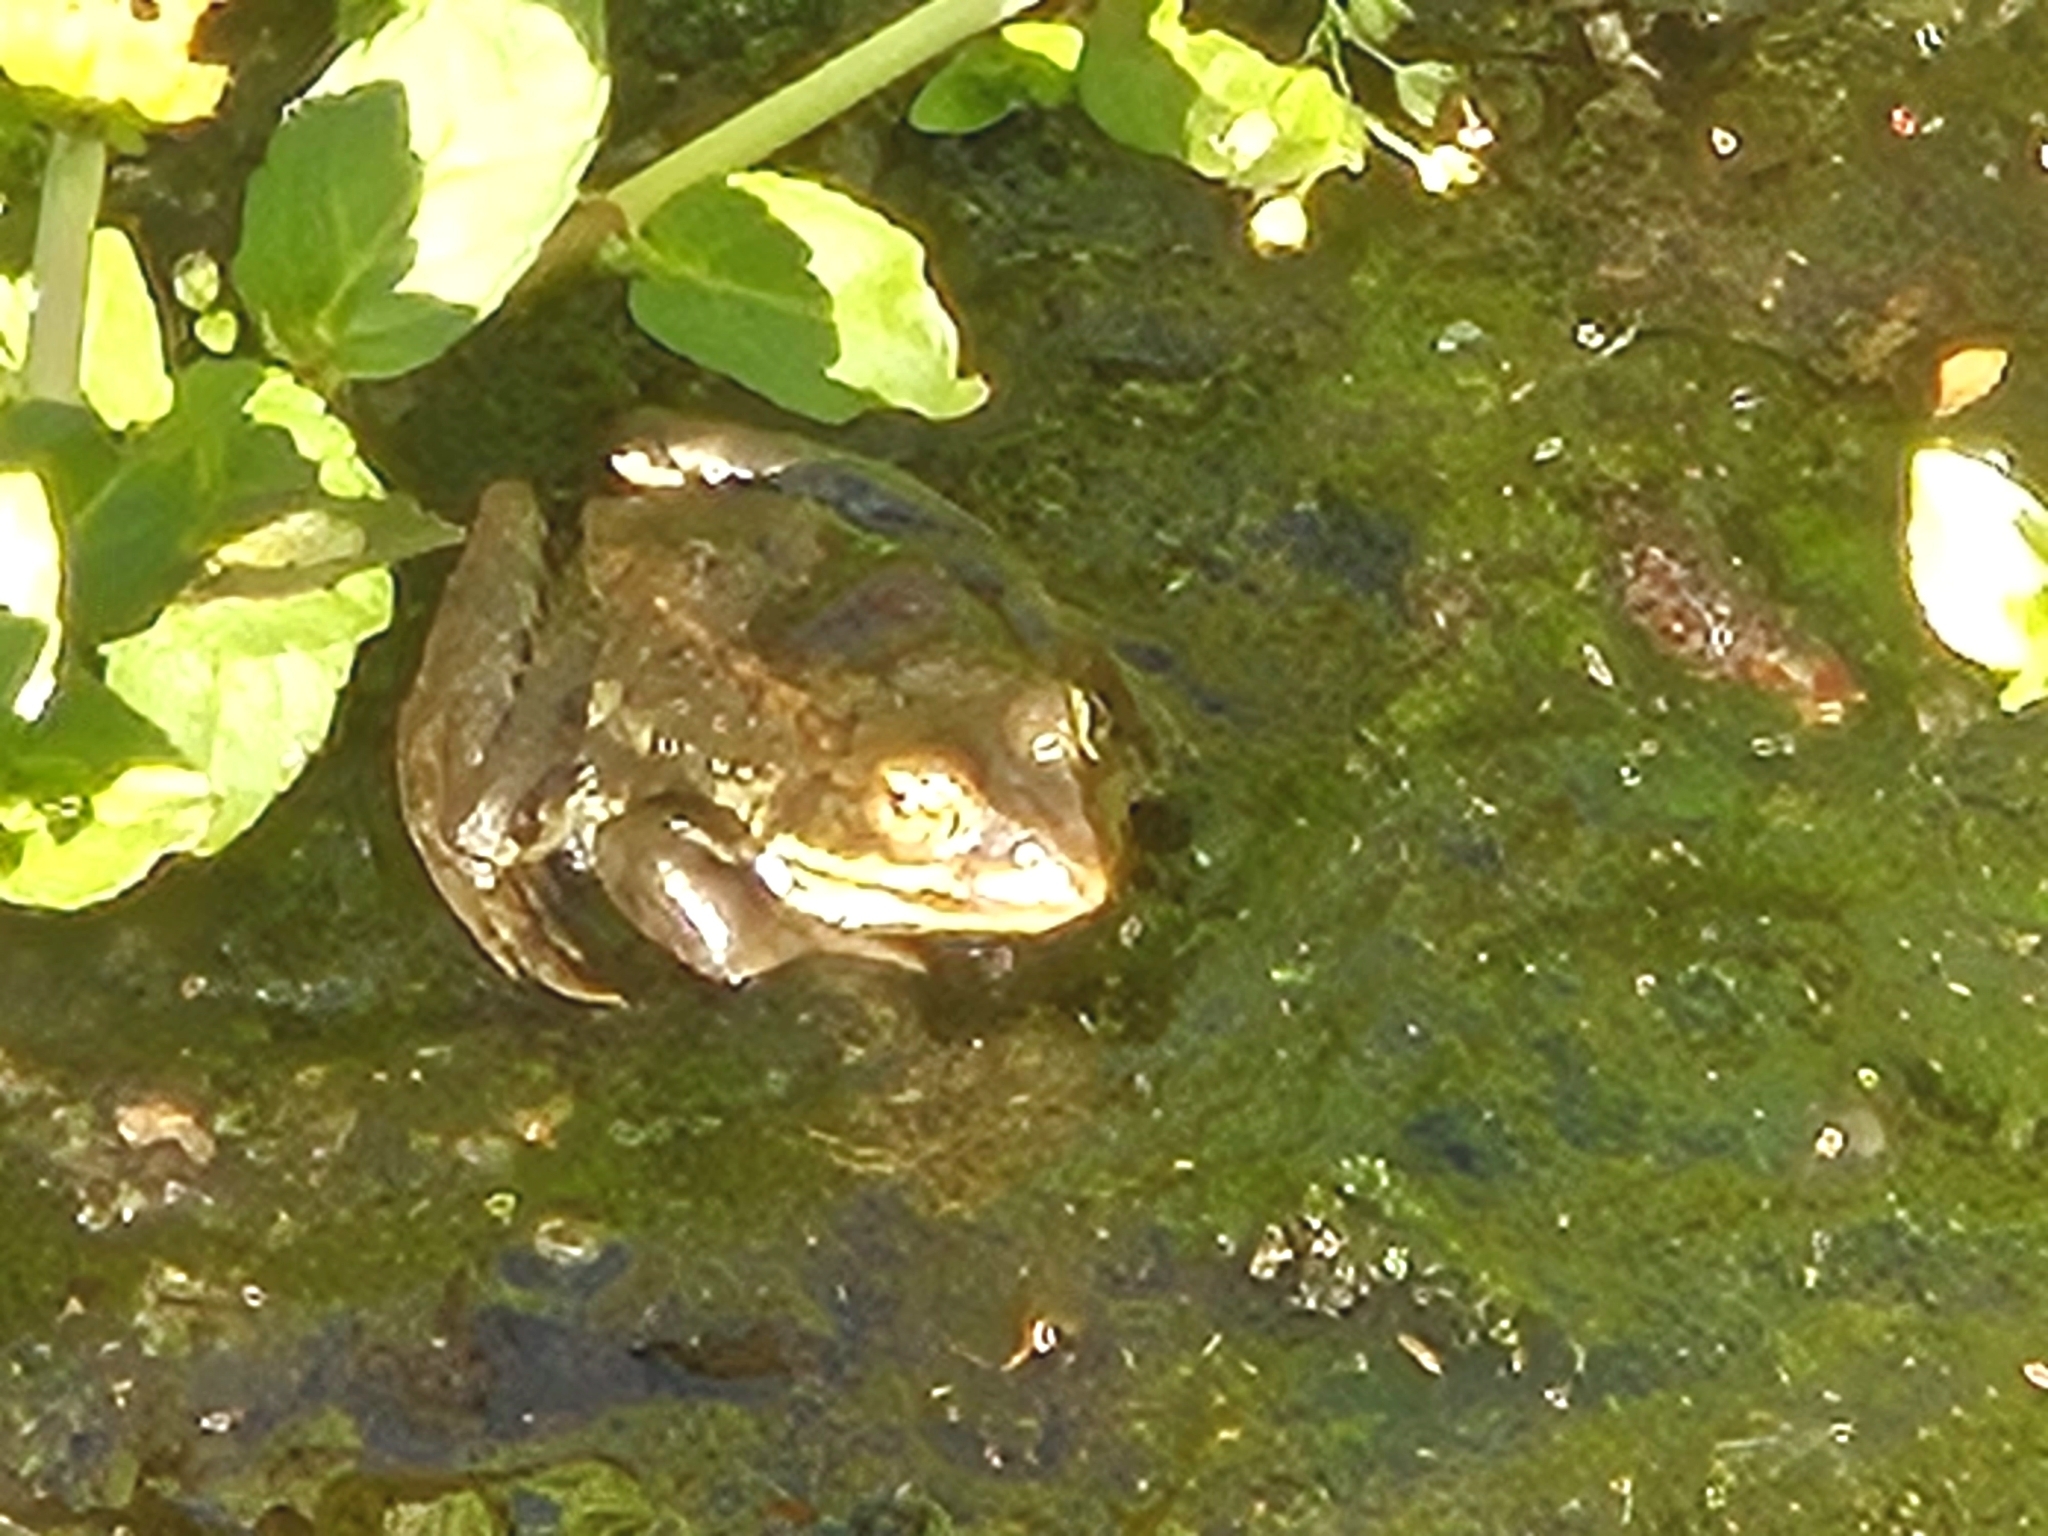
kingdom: Animalia
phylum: Chordata
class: Amphibia
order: Anura
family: Ranidae
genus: Rana
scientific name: Rana luteiventris
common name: Columbia spotted frog
